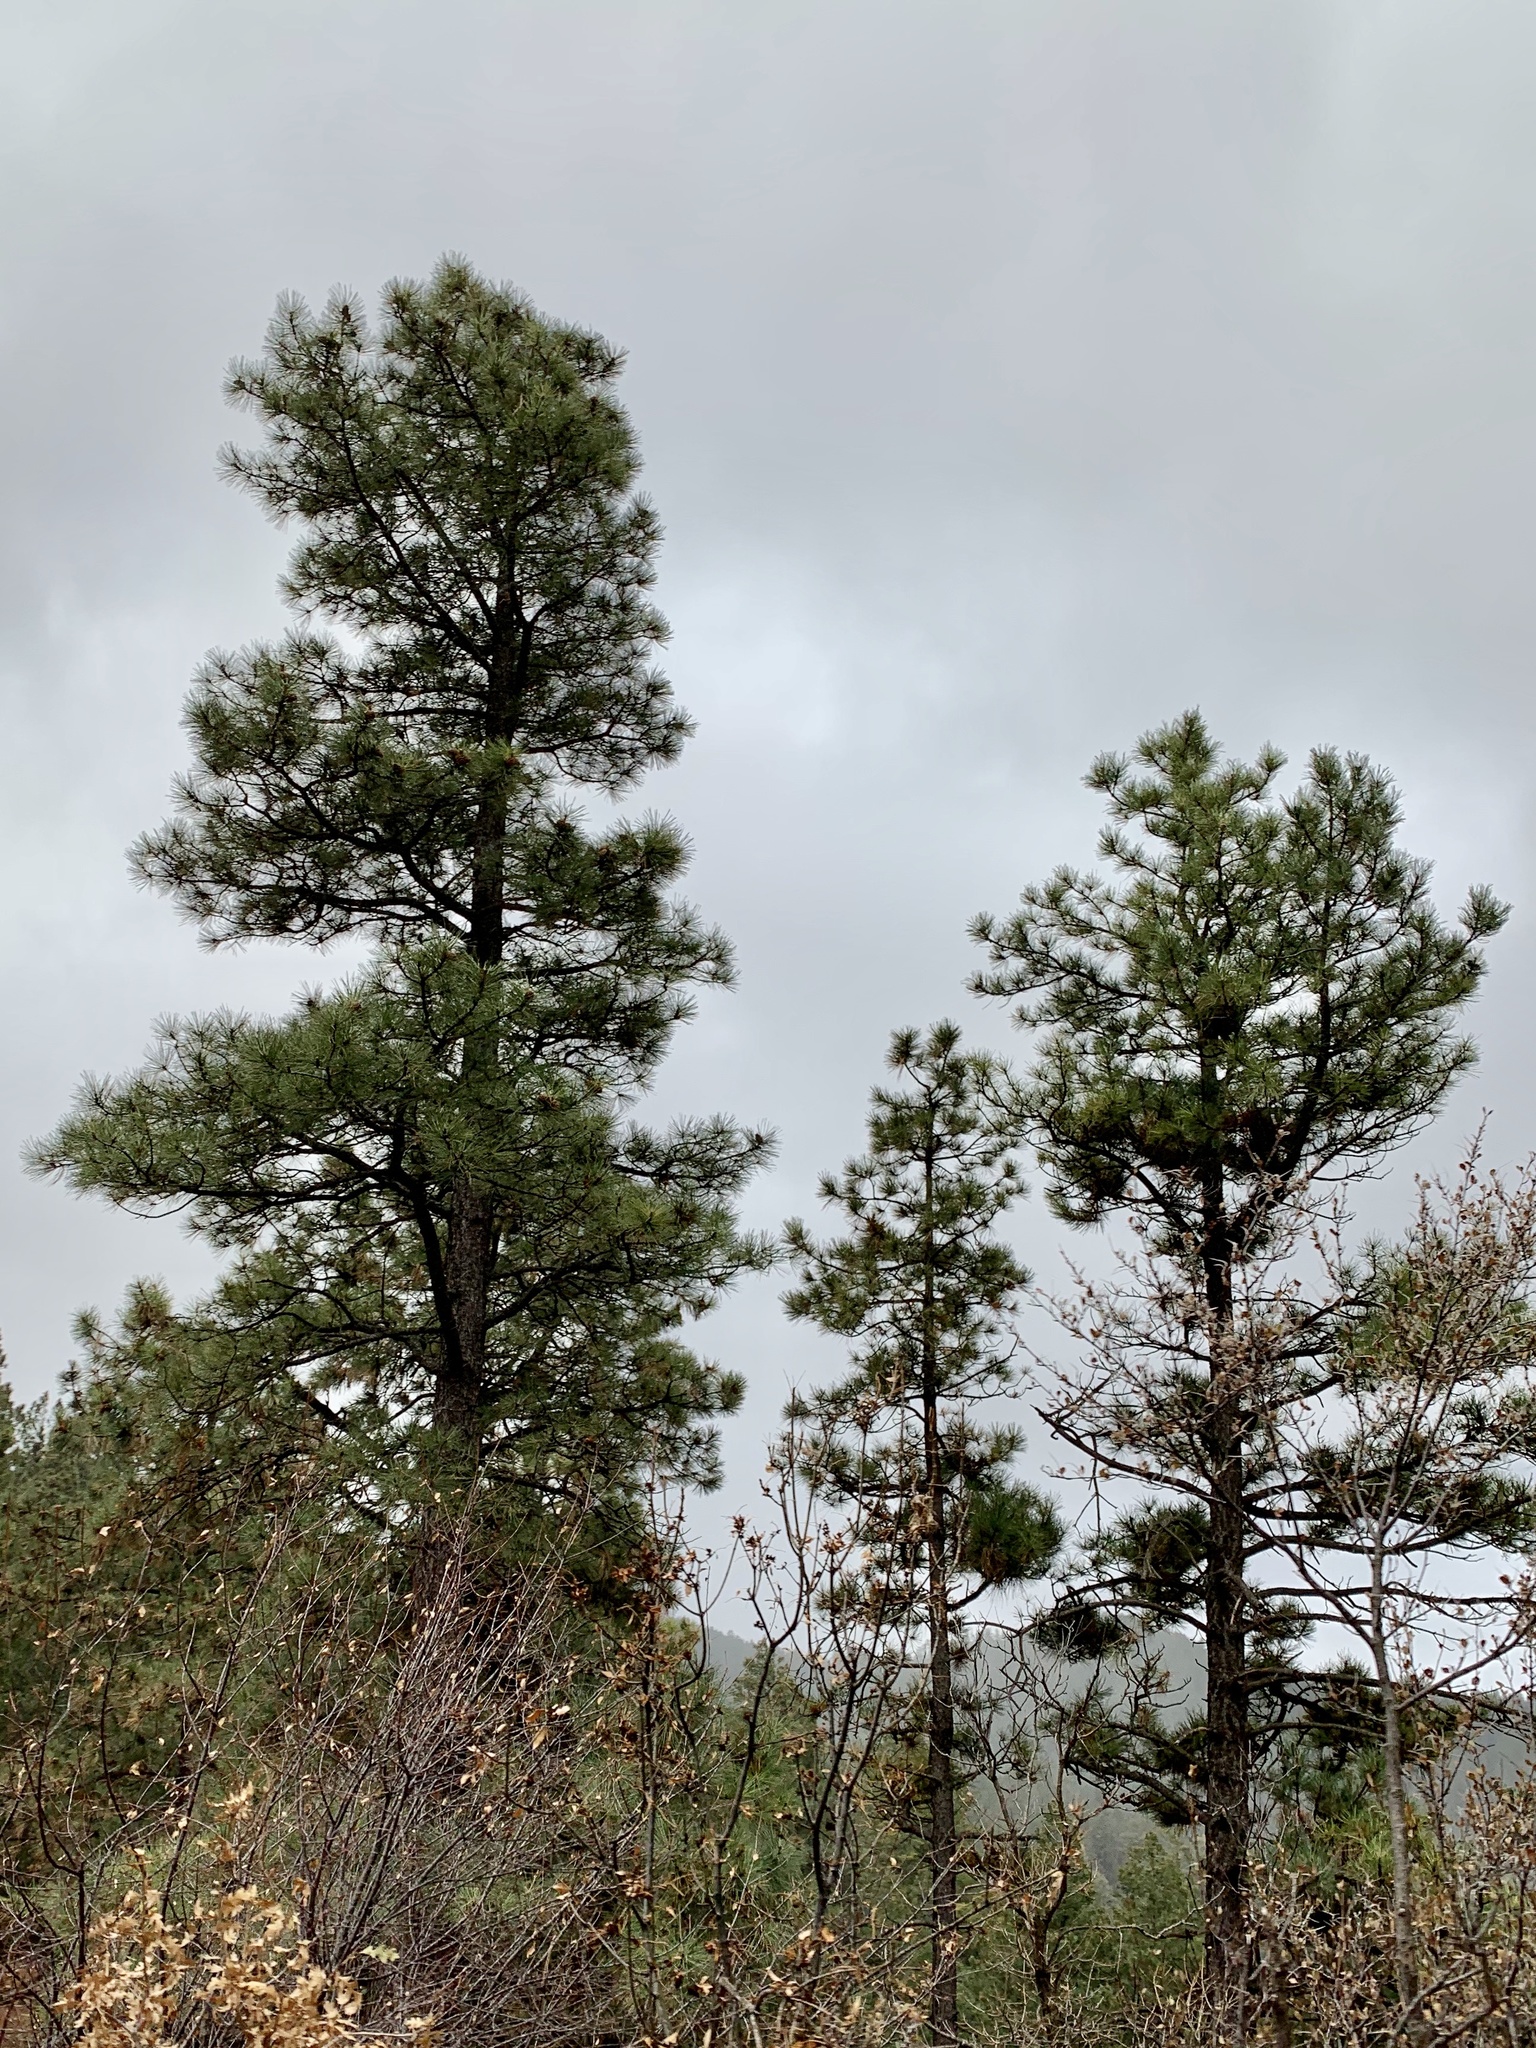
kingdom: Plantae
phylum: Tracheophyta
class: Pinopsida
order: Pinales
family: Pinaceae
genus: Pinus
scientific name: Pinus ponderosa
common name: Western yellow-pine
